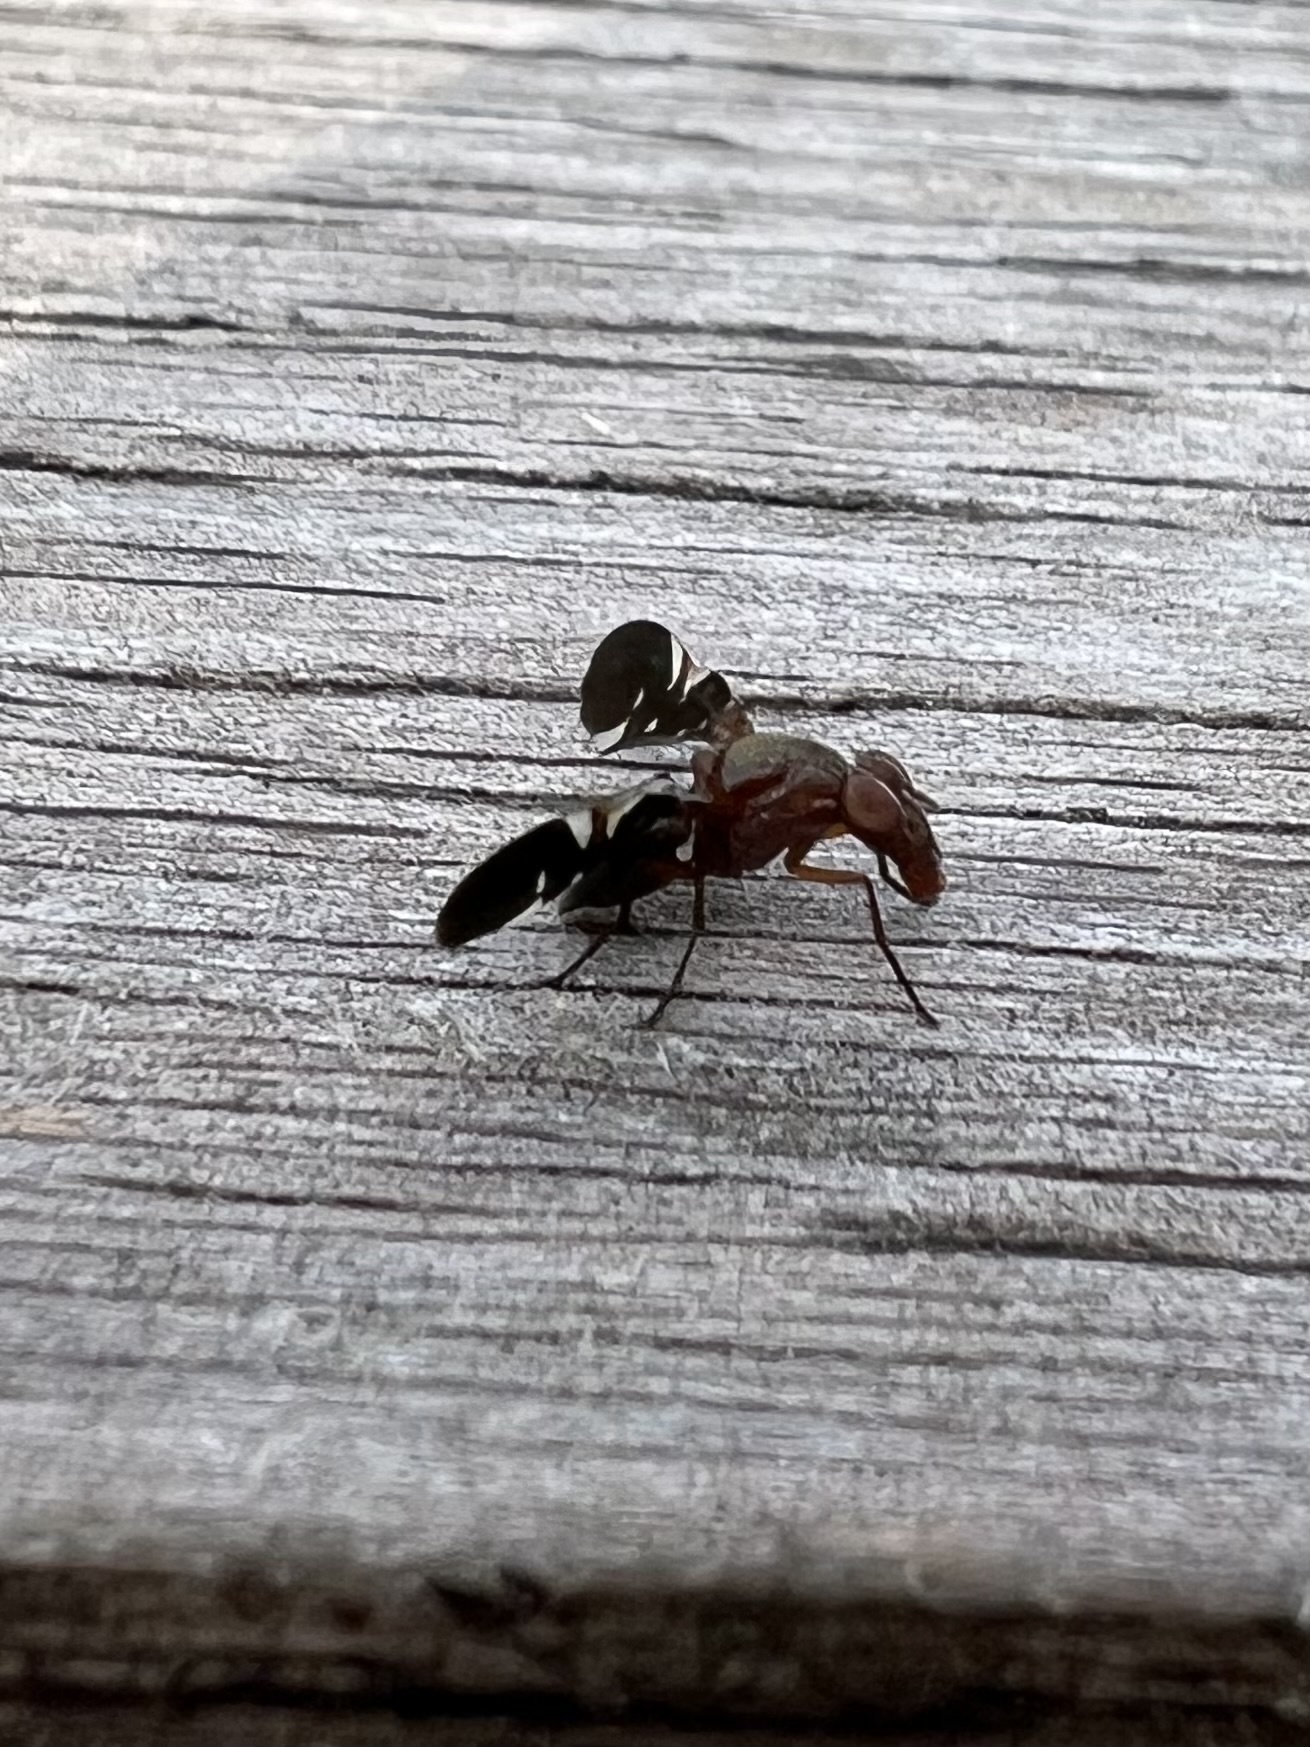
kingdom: Animalia
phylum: Arthropoda
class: Insecta
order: Diptera
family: Ulidiidae
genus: Delphinia
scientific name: Delphinia picta
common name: Common picture-winged fly
